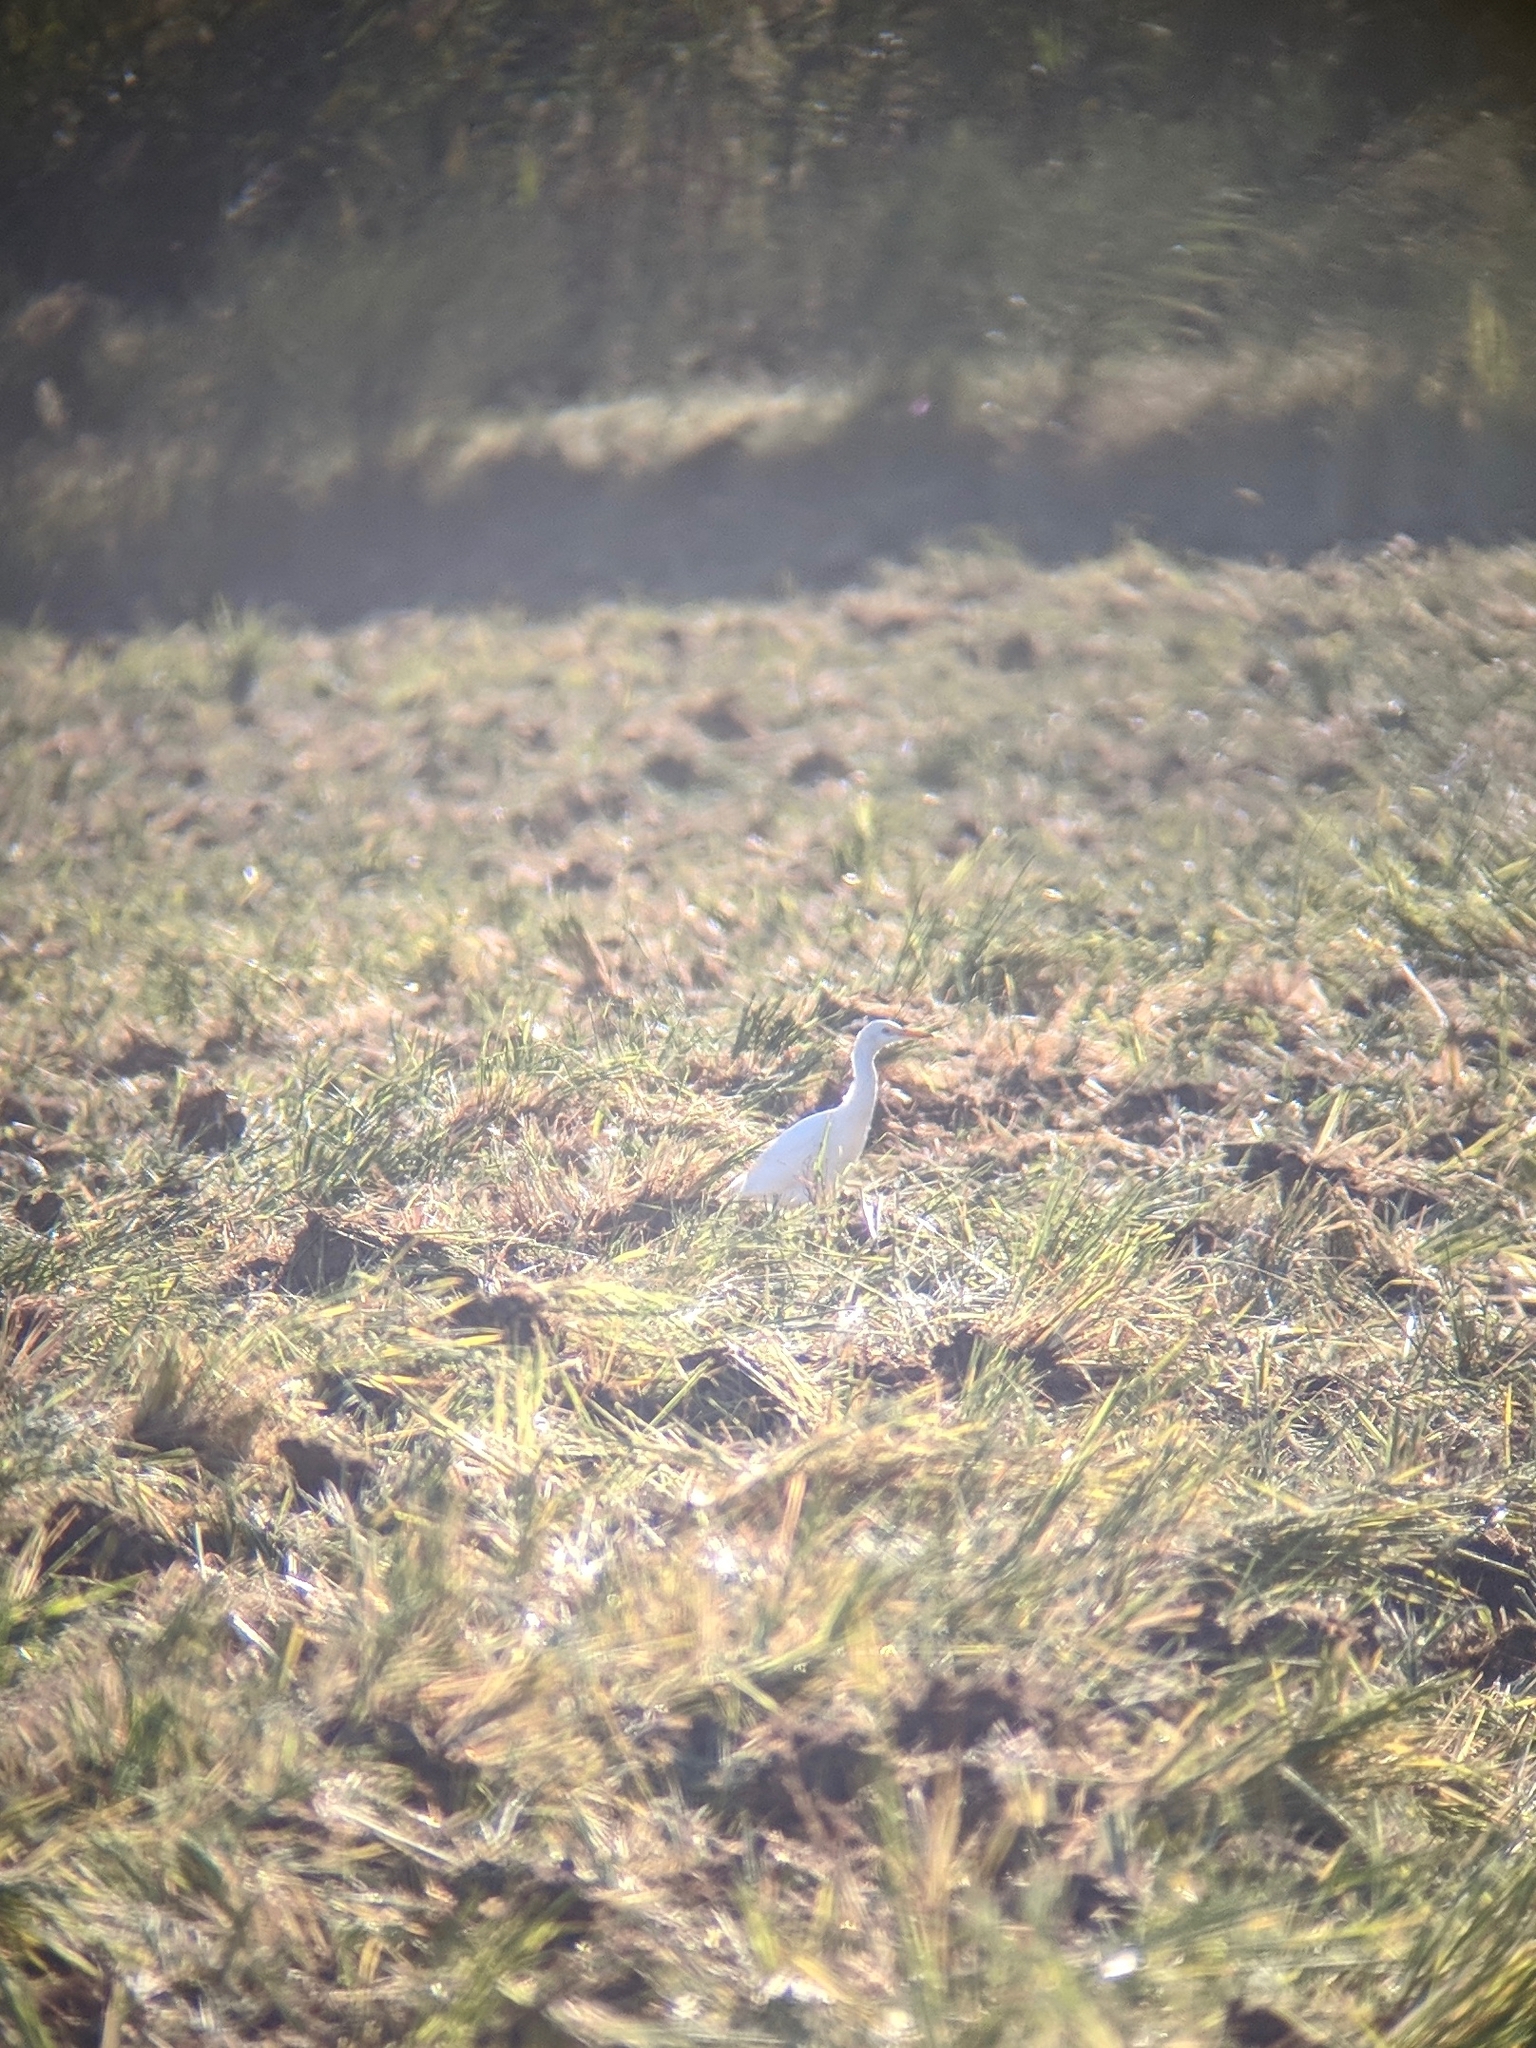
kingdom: Animalia
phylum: Chordata
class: Aves
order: Pelecaniformes
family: Ardeidae
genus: Bubulcus
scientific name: Bubulcus ibis
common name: Cattle egret
